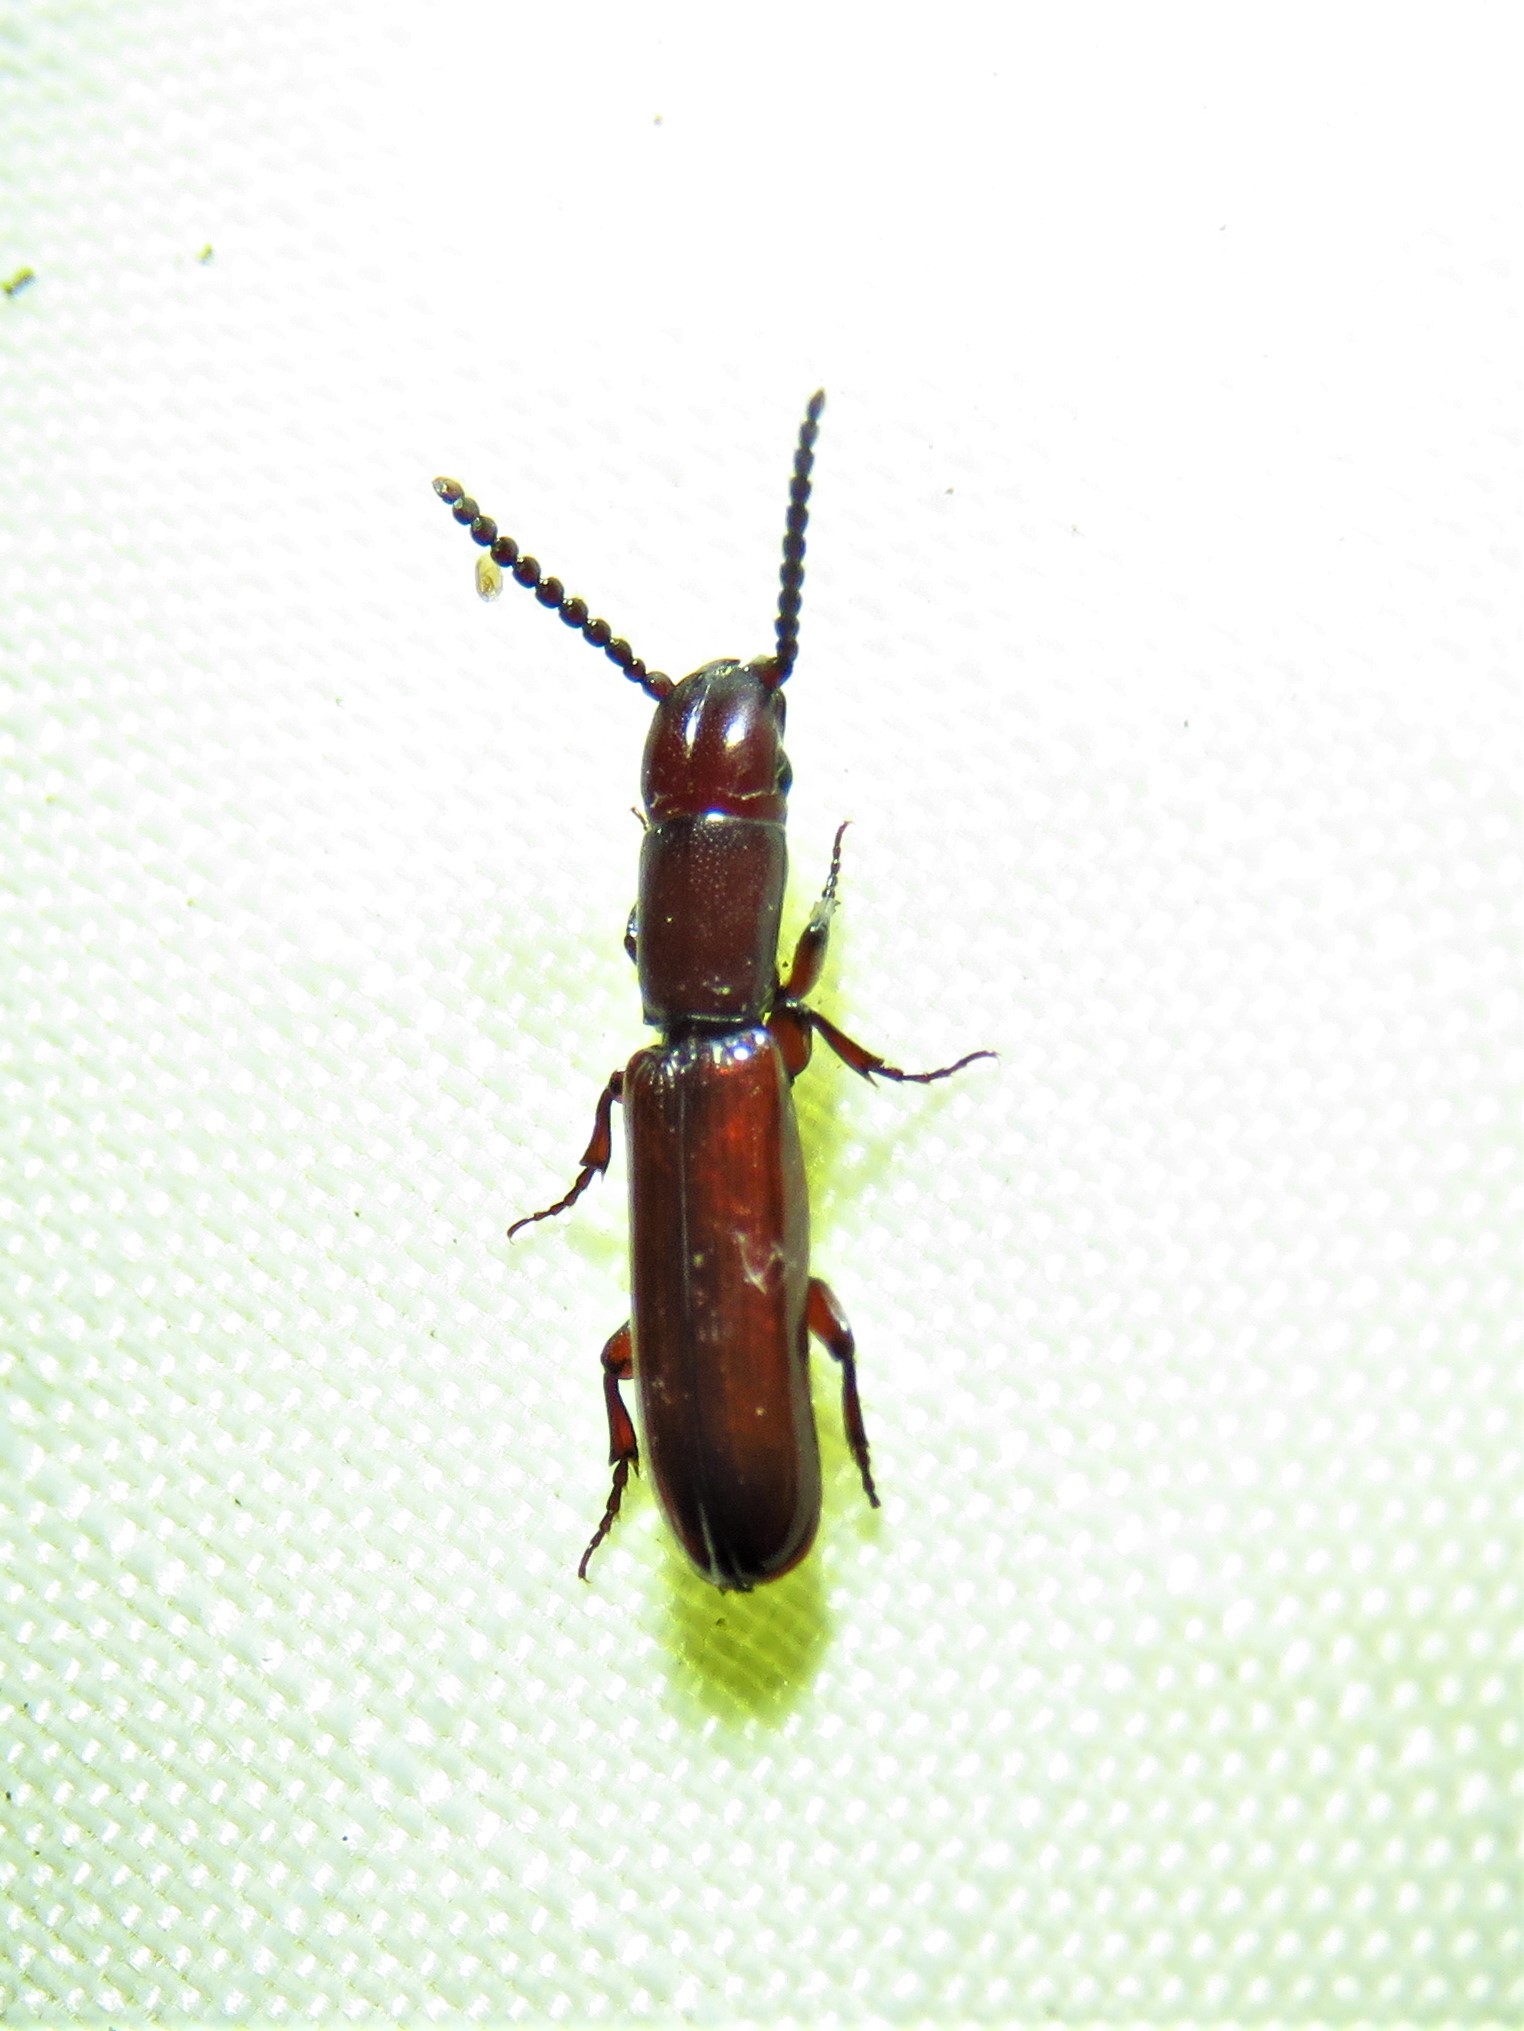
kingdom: Animalia
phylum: Arthropoda
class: Insecta
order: Coleoptera
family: Passandridae
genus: Taphroscelidia
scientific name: Taphroscelidia linearis
